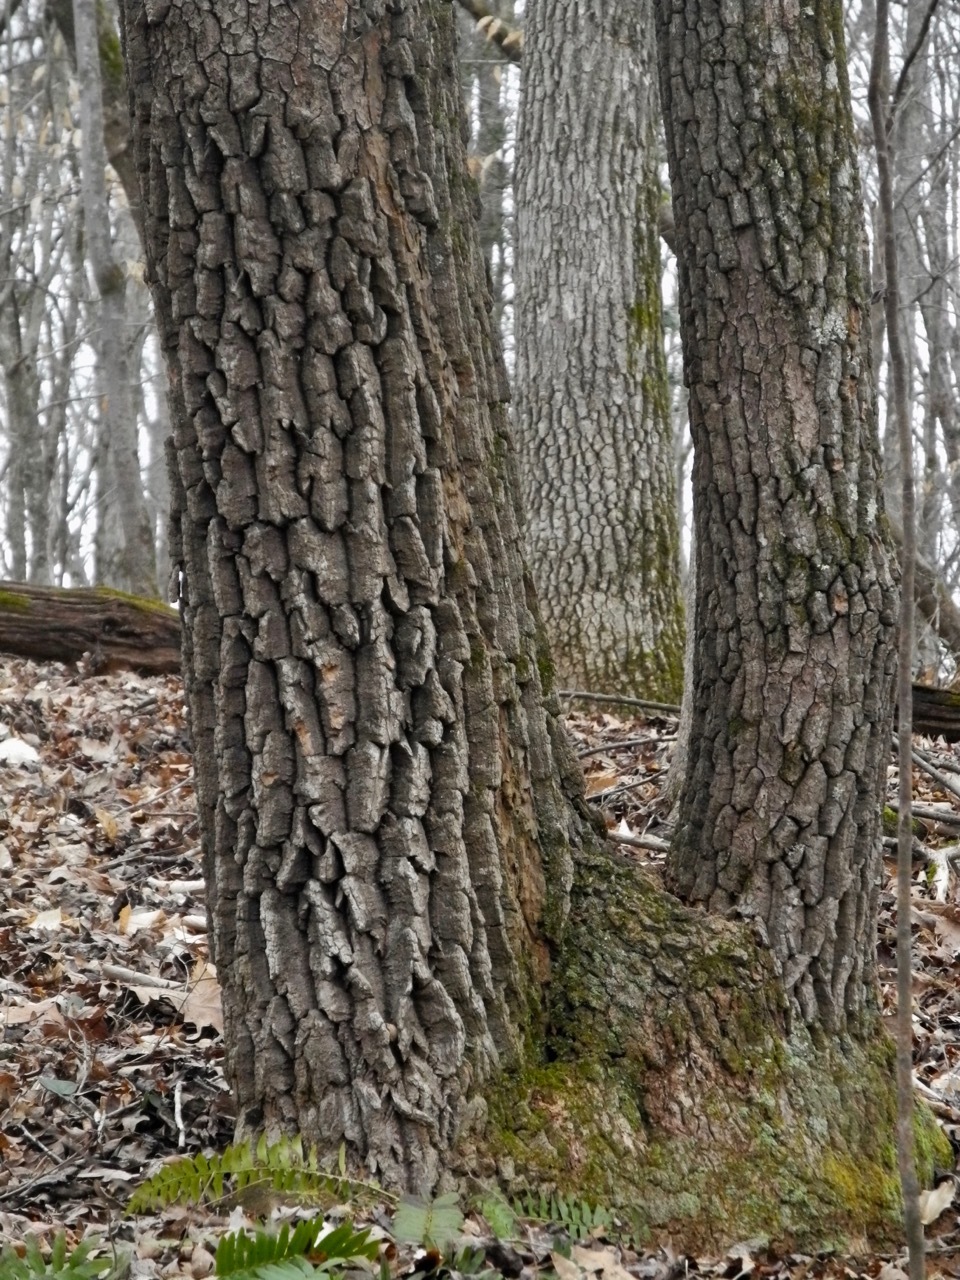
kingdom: Plantae
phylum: Tracheophyta
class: Magnoliopsida
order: Ericales
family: Ericaceae
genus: Oxydendrum
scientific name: Oxydendrum arboreum
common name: Sourwood
